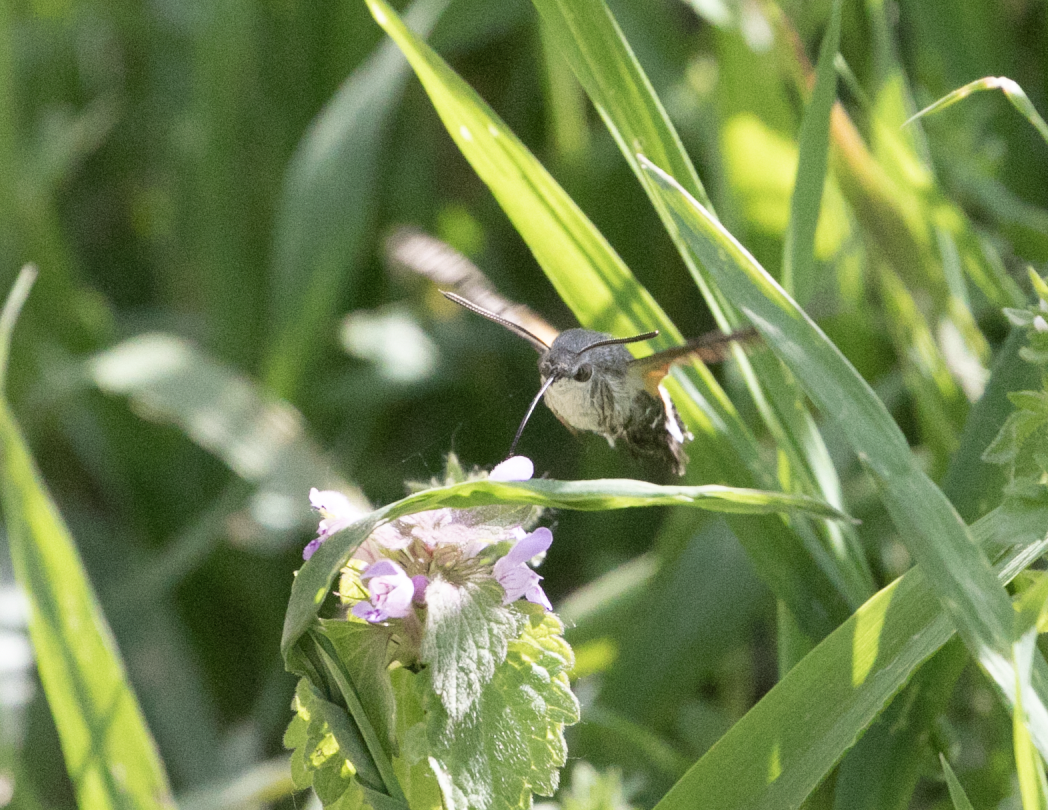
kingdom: Animalia
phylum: Arthropoda
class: Insecta
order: Lepidoptera
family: Sphingidae
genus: Macroglossum
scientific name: Macroglossum stellatarum
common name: Humming-bird hawk-moth
